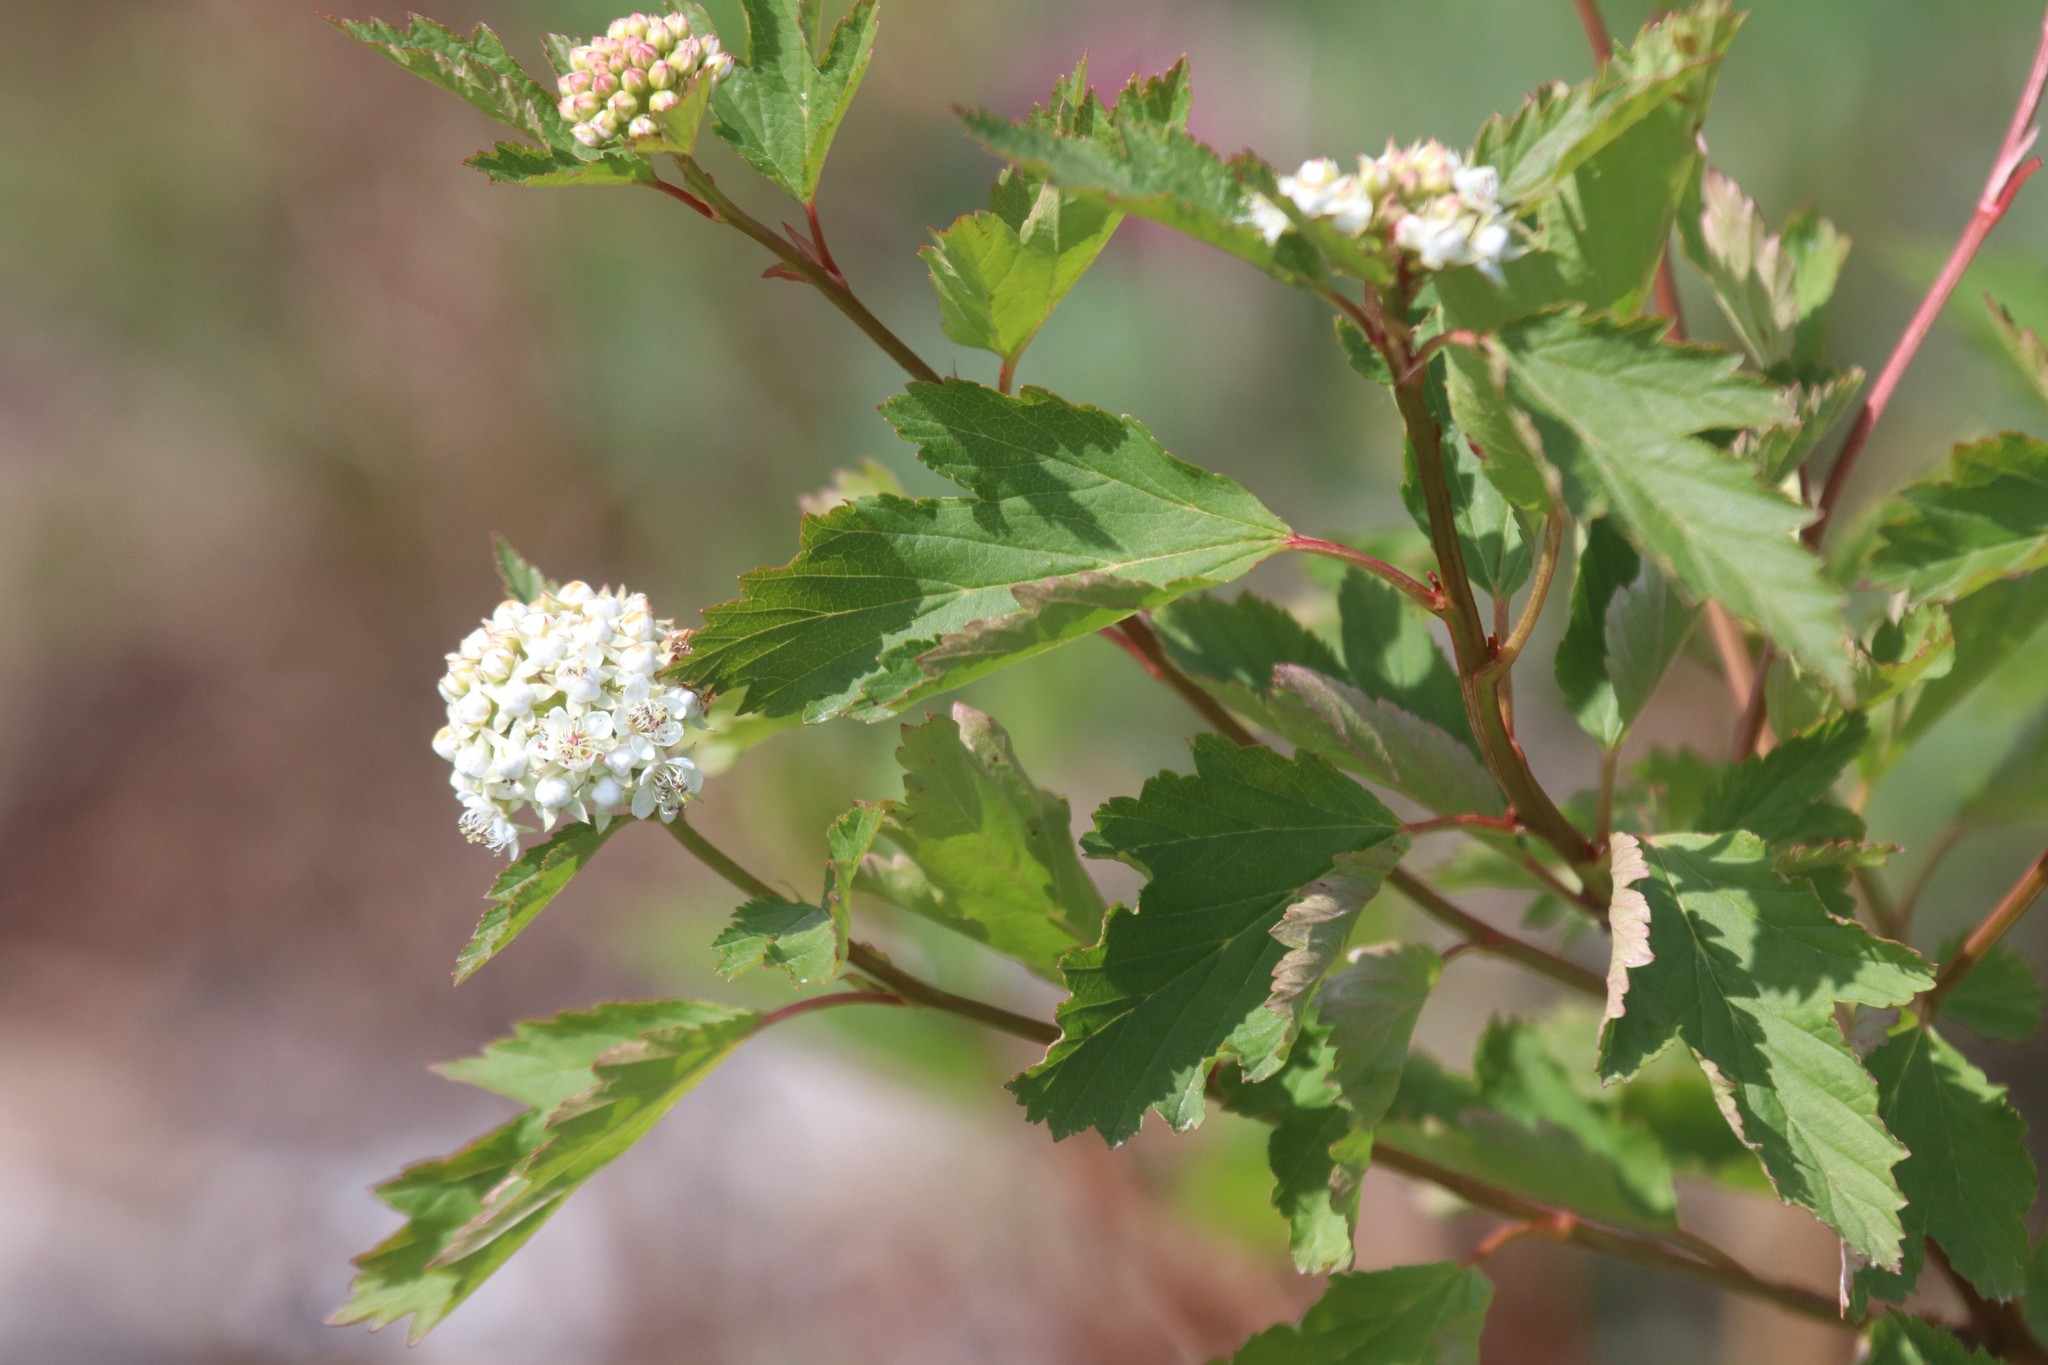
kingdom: Plantae
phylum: Tracheophyta
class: Magnoliopsida
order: Rosales
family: Rosaceae
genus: Physocarpus
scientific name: Physocarpus opulifolius
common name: Ninebark
